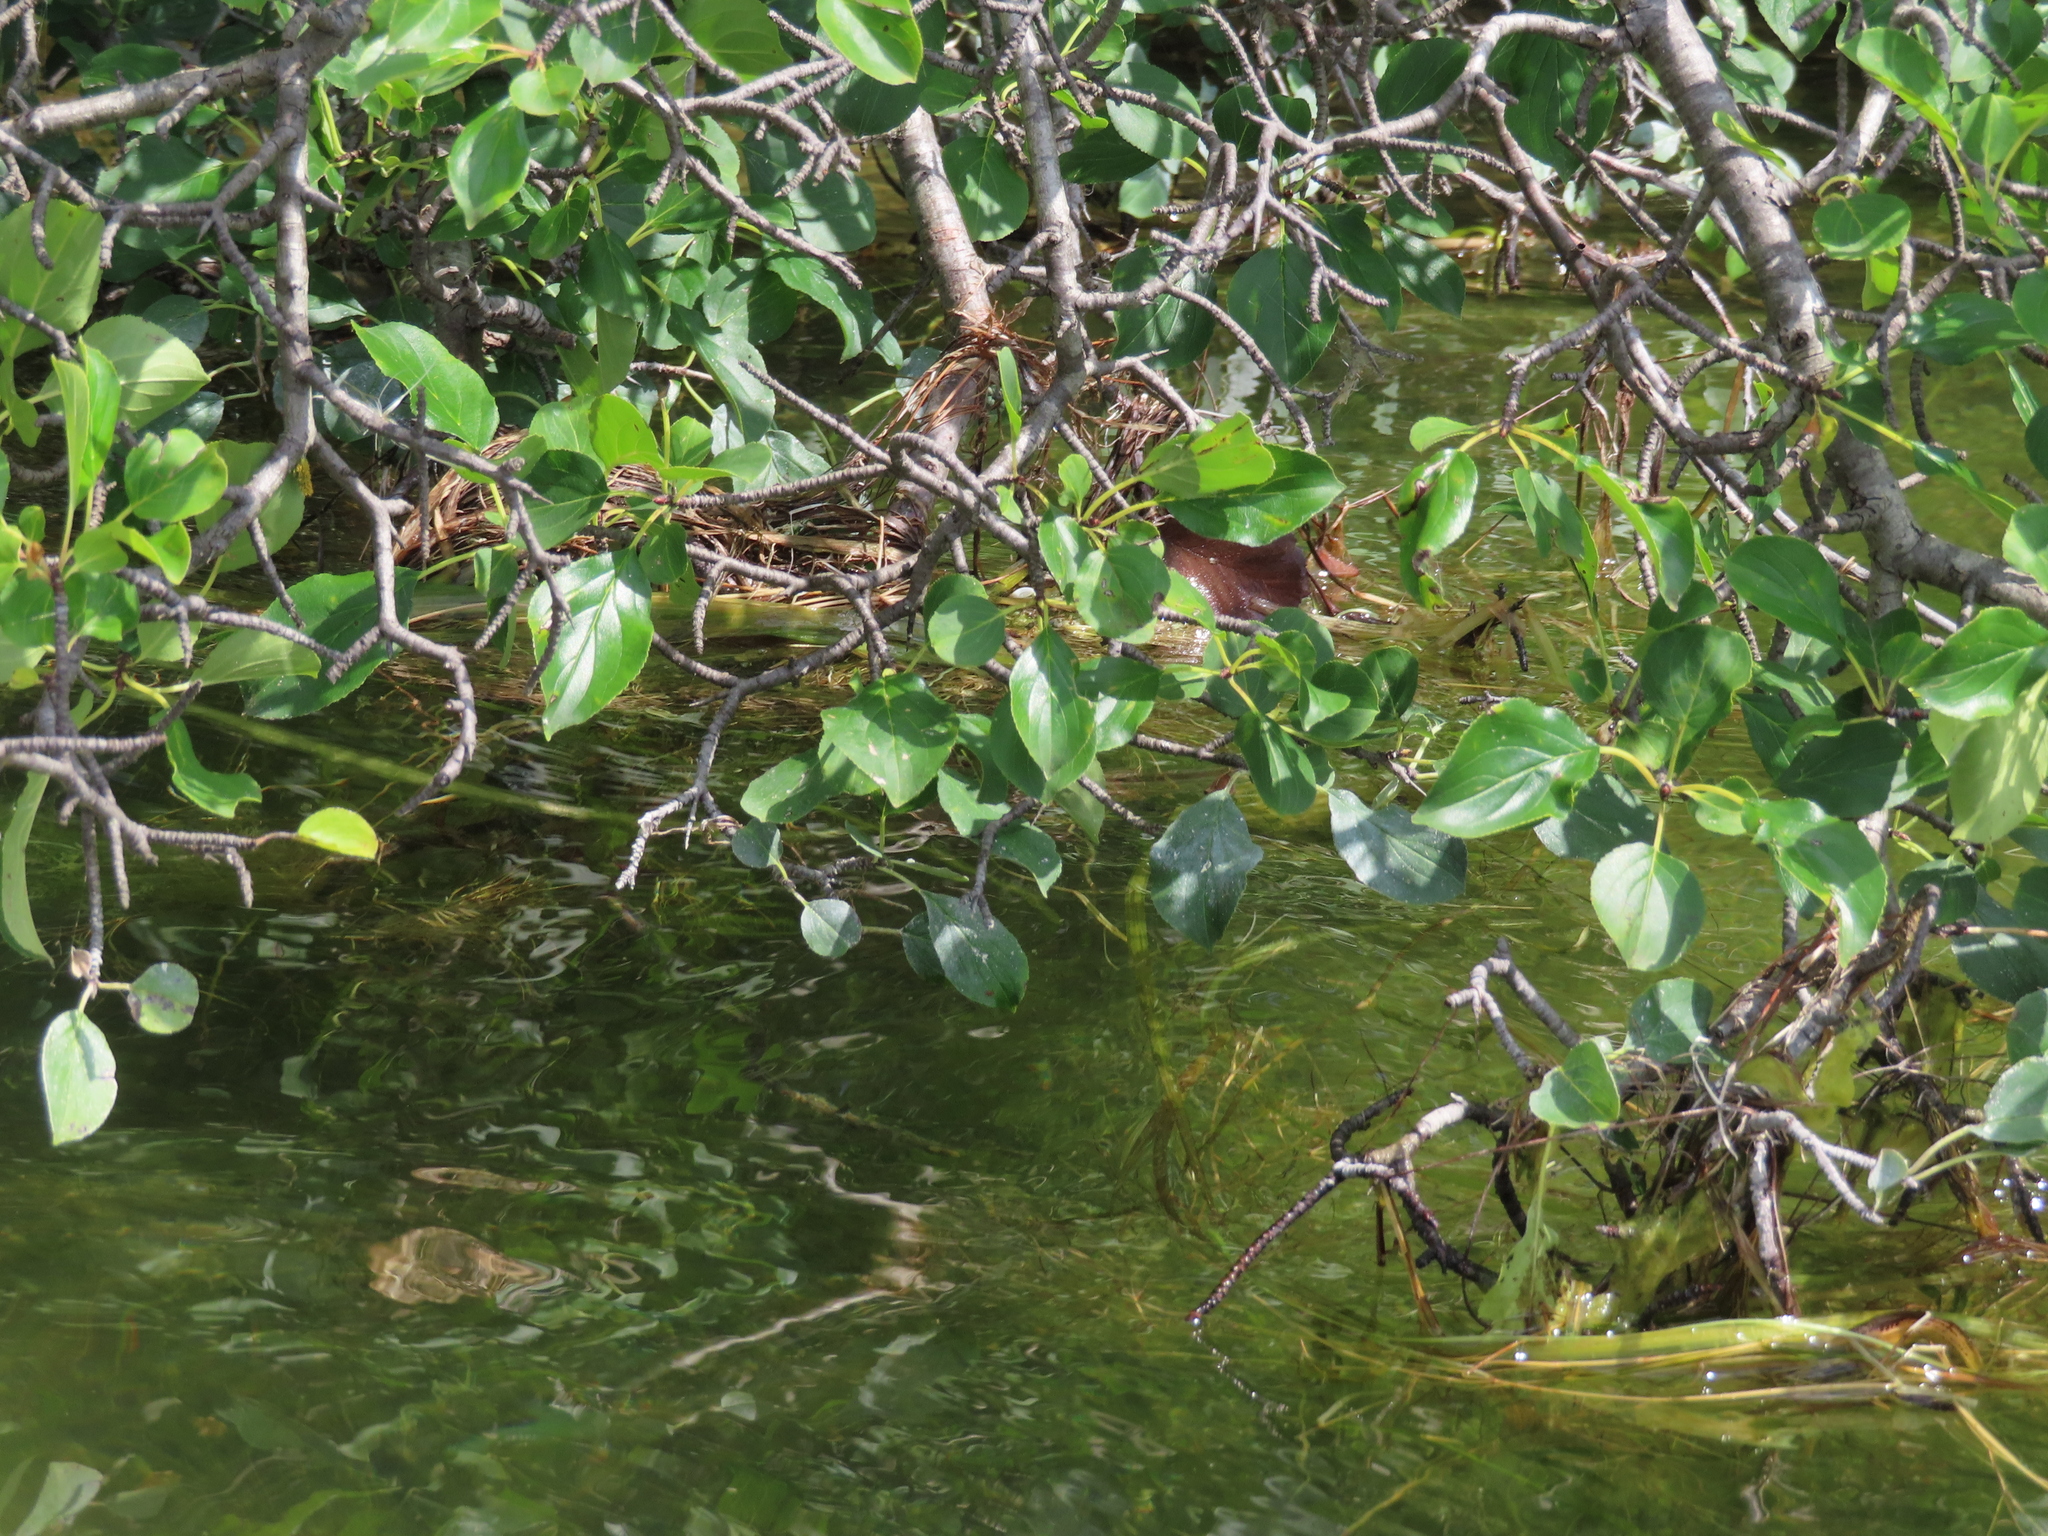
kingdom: Plantae
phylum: Tracheophyta
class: Magnoliopsida
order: Rosales
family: Rhamnaceae
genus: Rhamnus
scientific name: Rhamnus cathartica
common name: Common buckthorn
